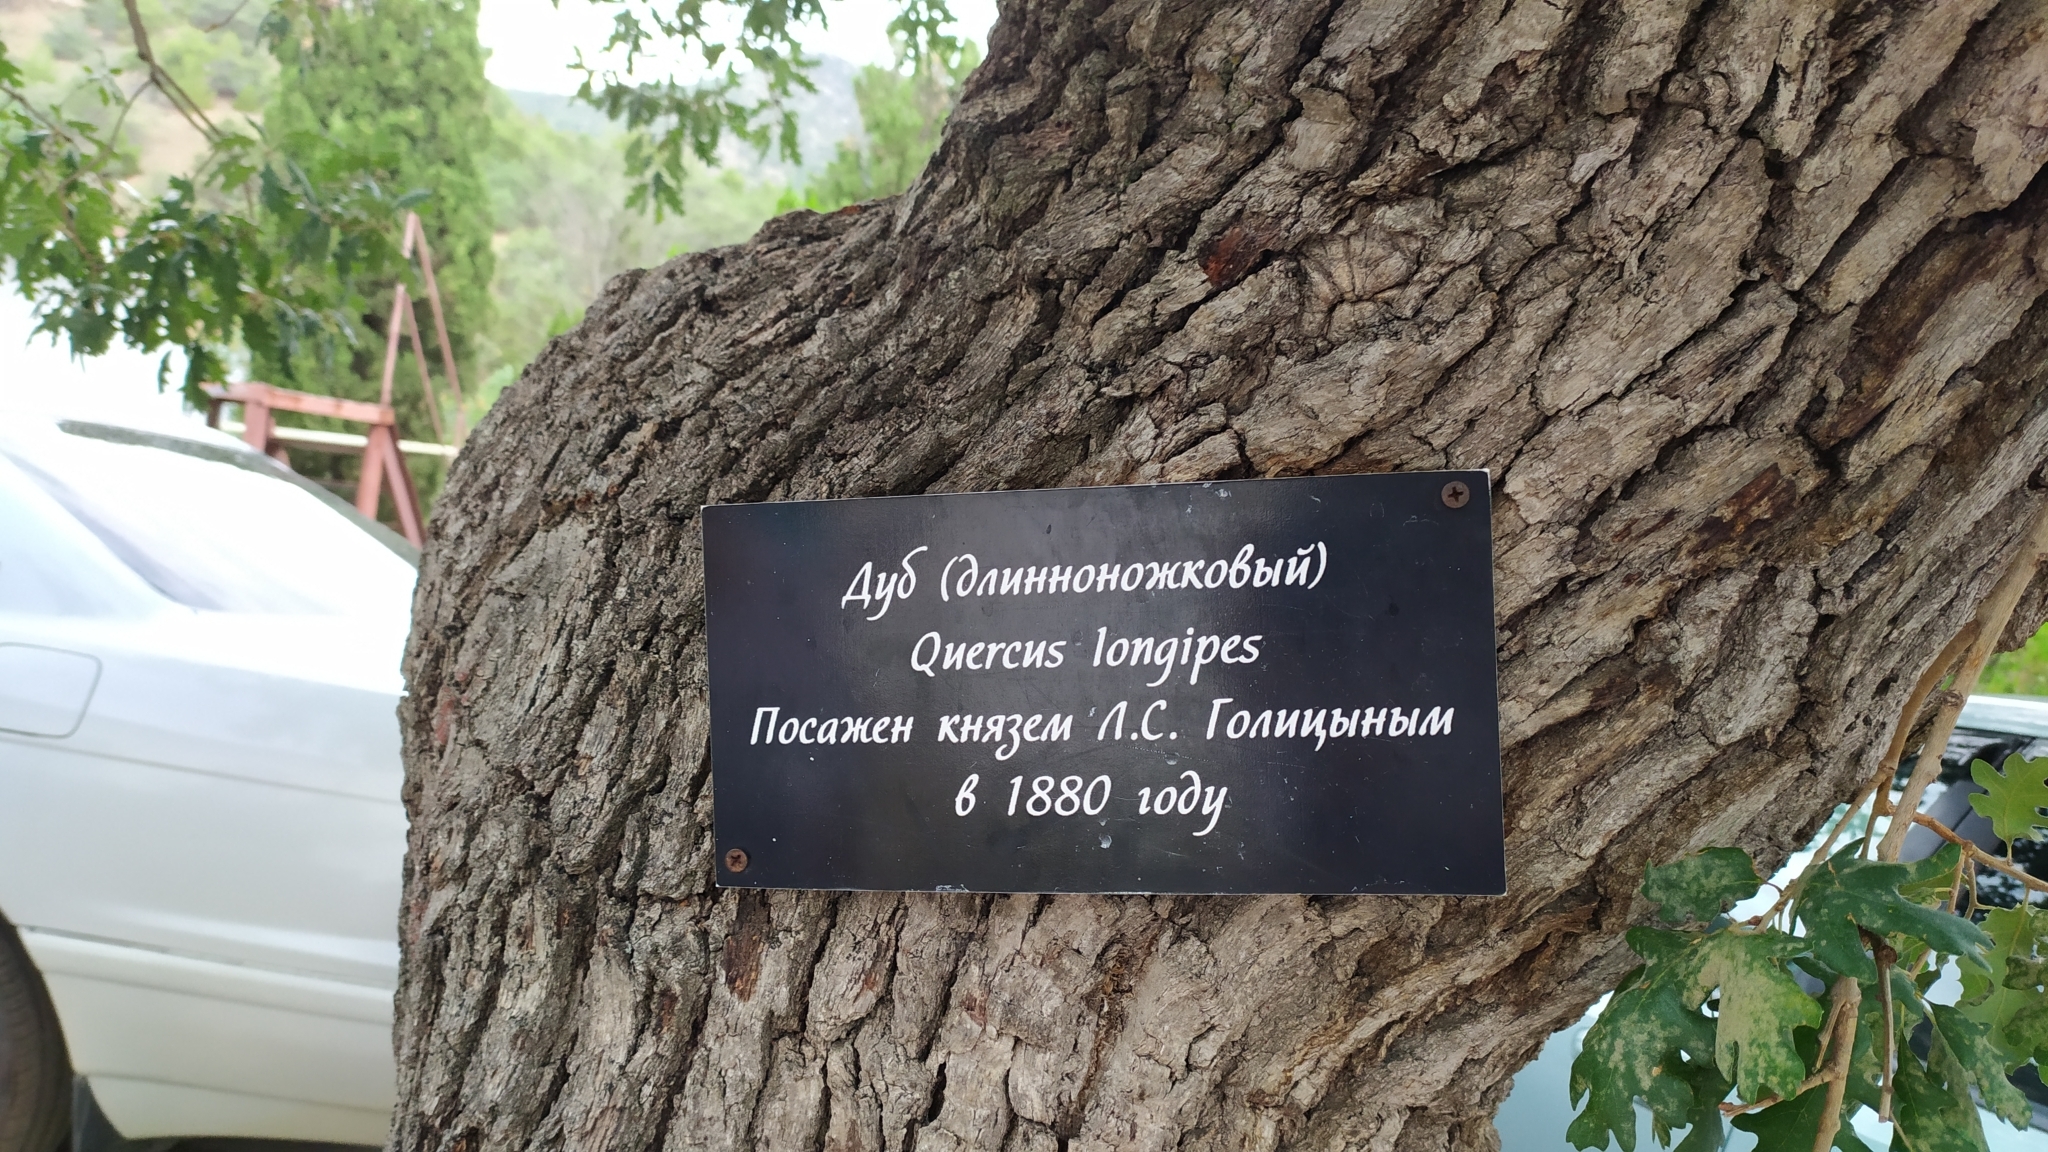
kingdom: Plantae
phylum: Tracheophyta
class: Magnoliopsida
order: Fagales
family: Fagaceae
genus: Quercus
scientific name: Quercus pubescens
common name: Downy oak
